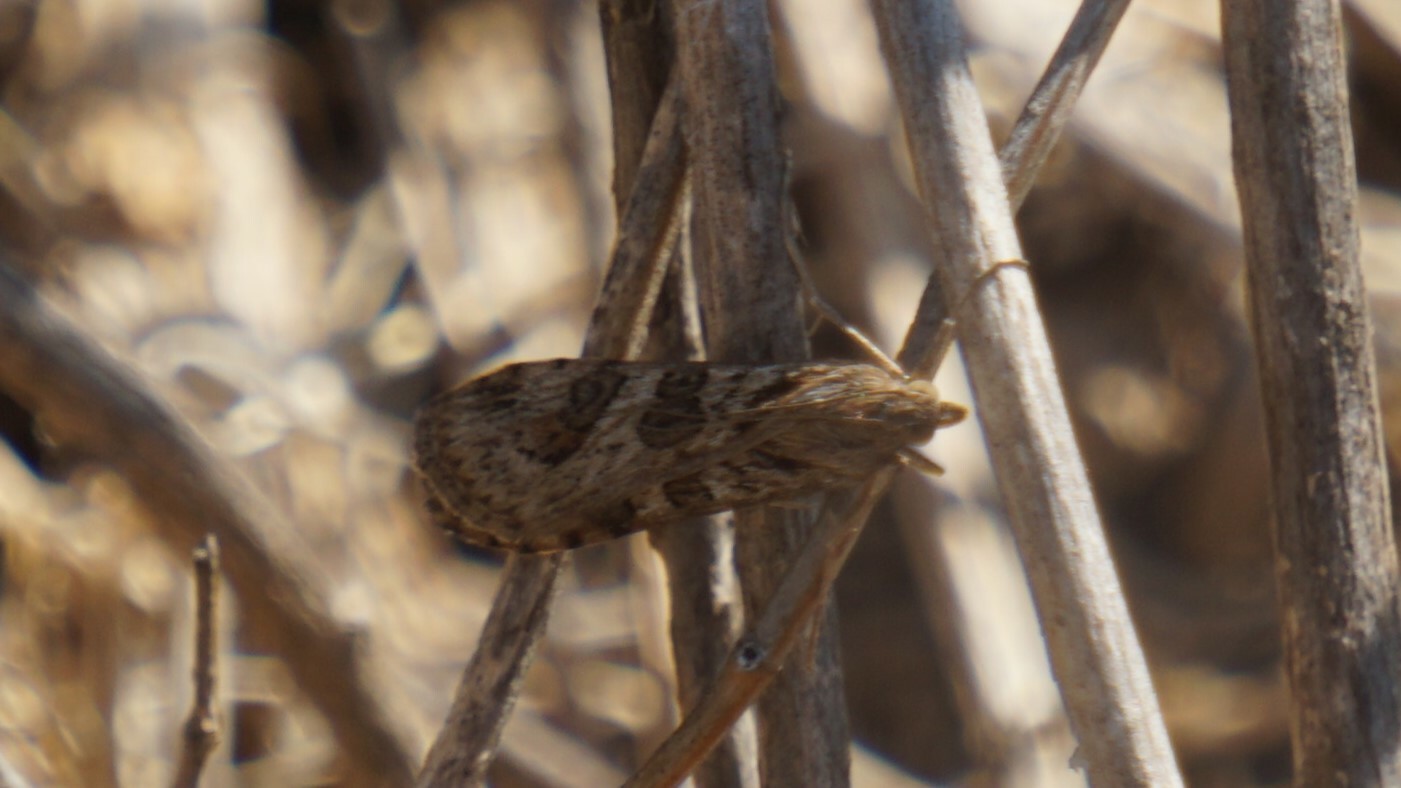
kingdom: Animalia
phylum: Arthropoda
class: Insecta
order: Lepidoptera
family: Crambidae
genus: Nomophila
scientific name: Nomophila noctuella
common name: Rush veneer
